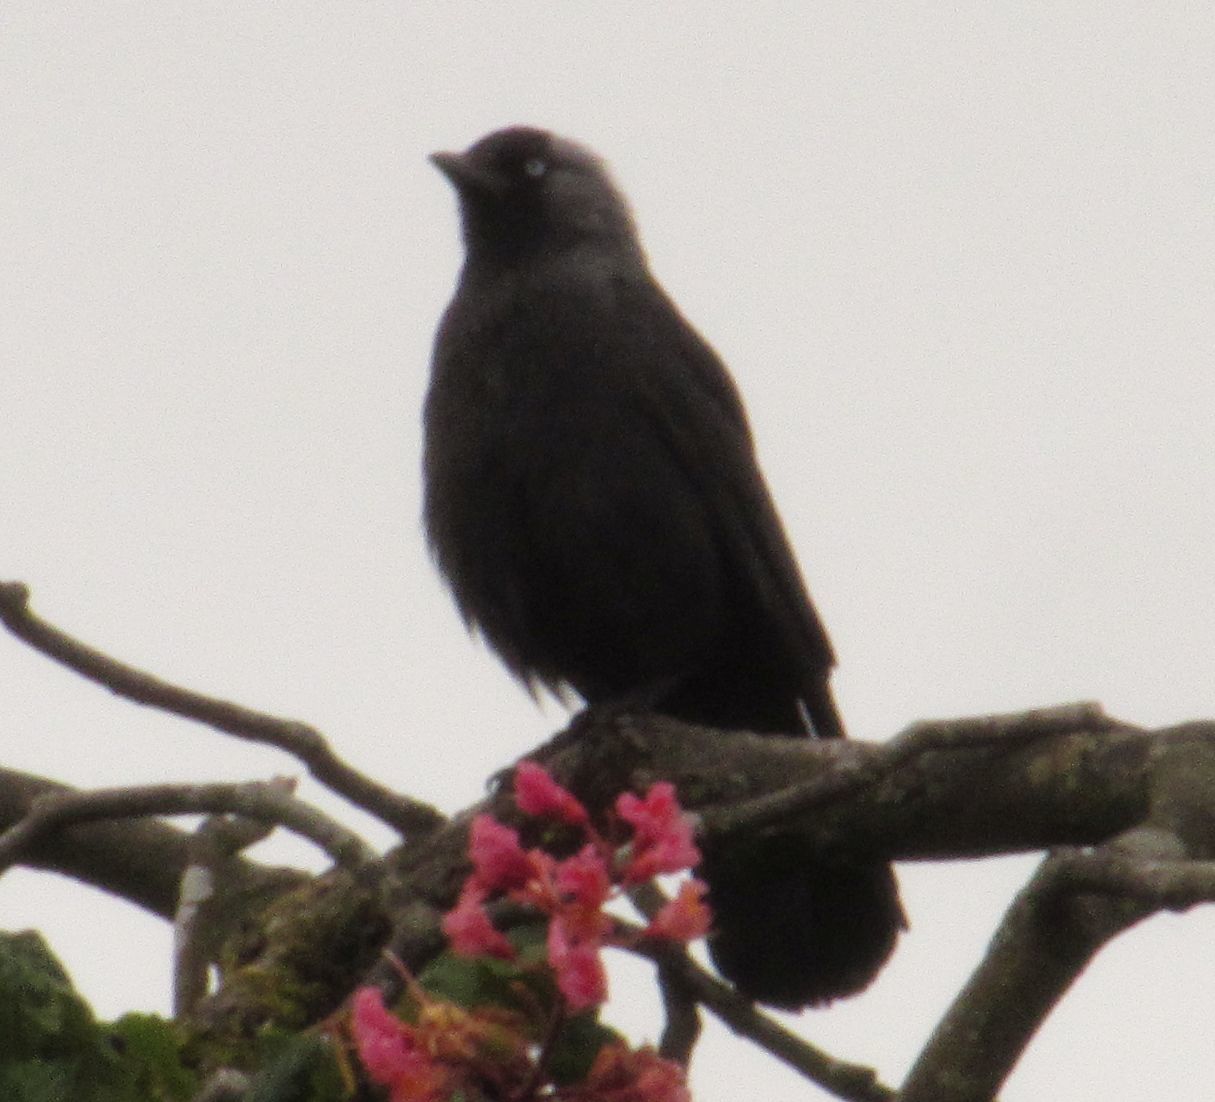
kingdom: Animalia
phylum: Chordata
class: Aves
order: Passeriformes
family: Corvidae
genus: Coloeus
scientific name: Coloeus monedula
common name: Western jackdaw
